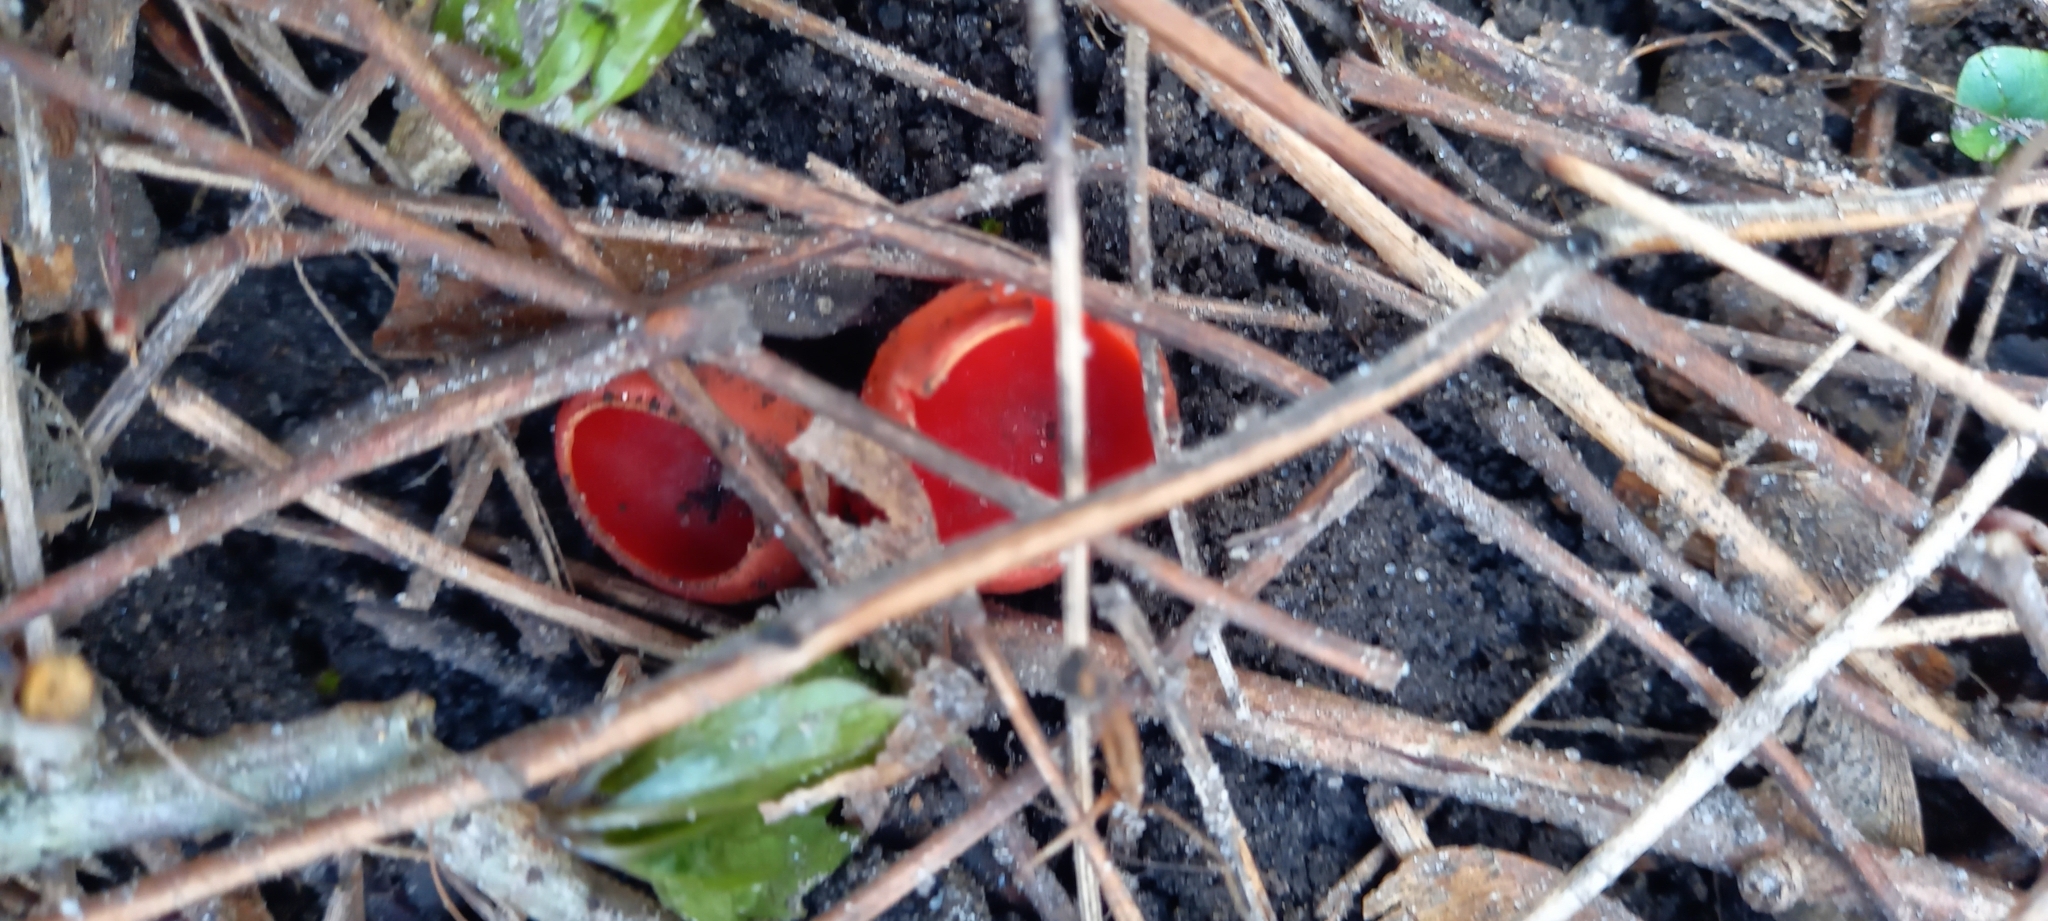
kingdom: Fungi
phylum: Ascomycota
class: Pezizomycetes
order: Pezizales
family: Sarcoscyphaceae
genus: Sarcoscypha
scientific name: Sarcoscypha
